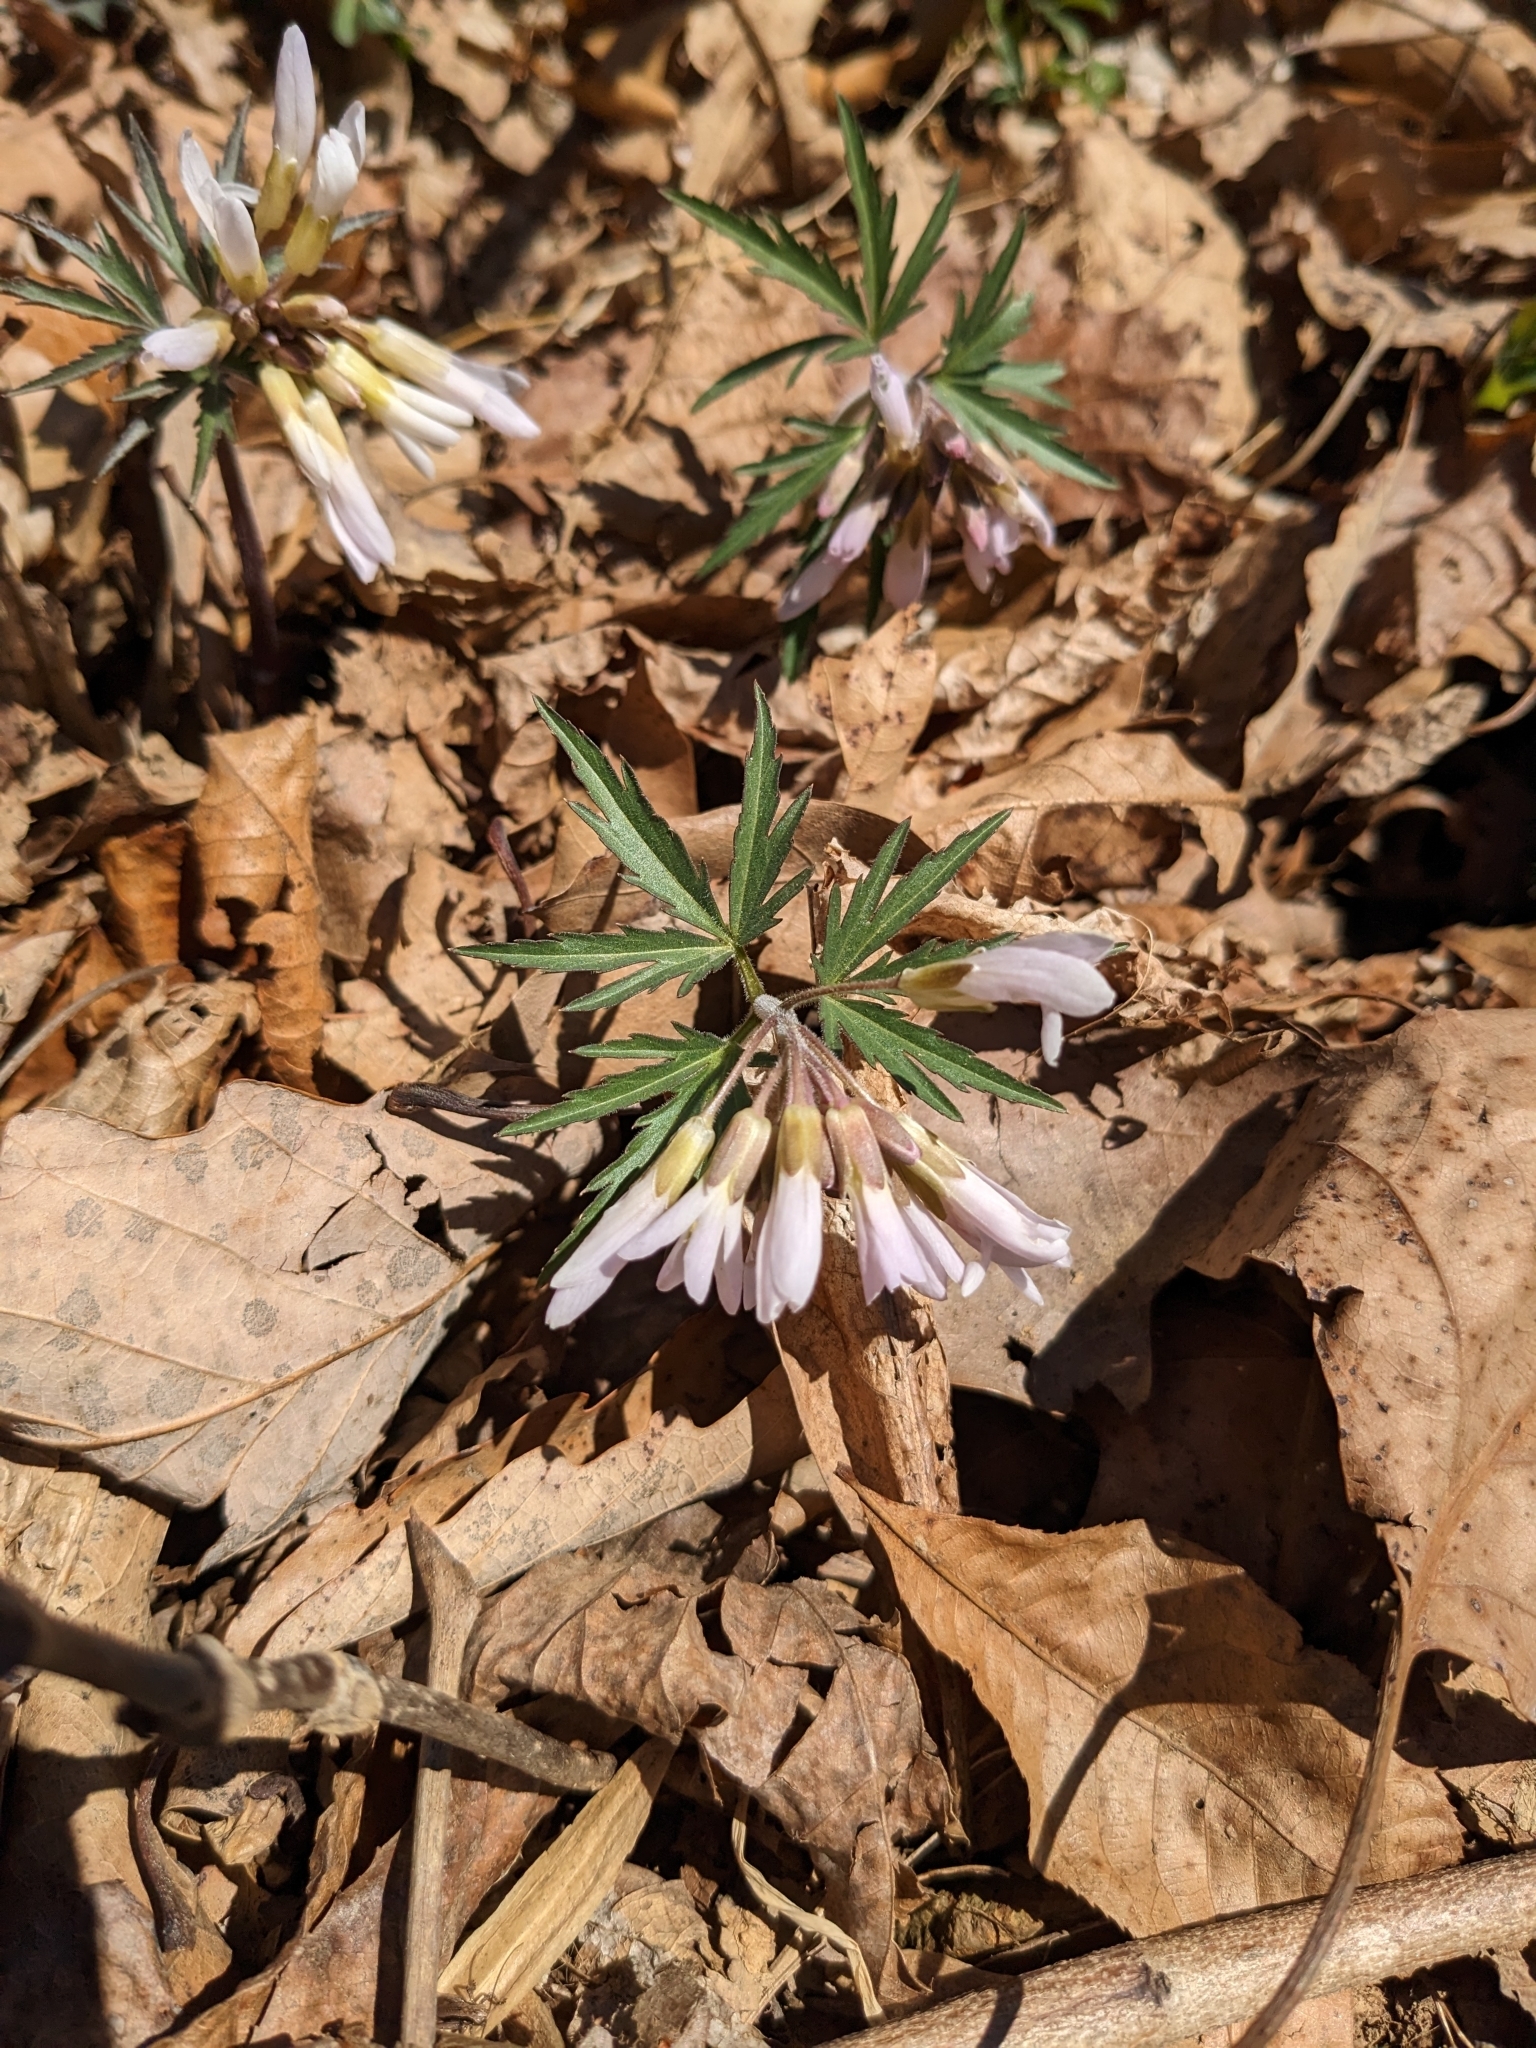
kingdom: Plantae
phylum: Tracheophyta
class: Magnoliopsida
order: Brassicales
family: Brassicaceae
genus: Cardamine
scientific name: Cardamine concatenata
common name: Cut-leaf toothcup
